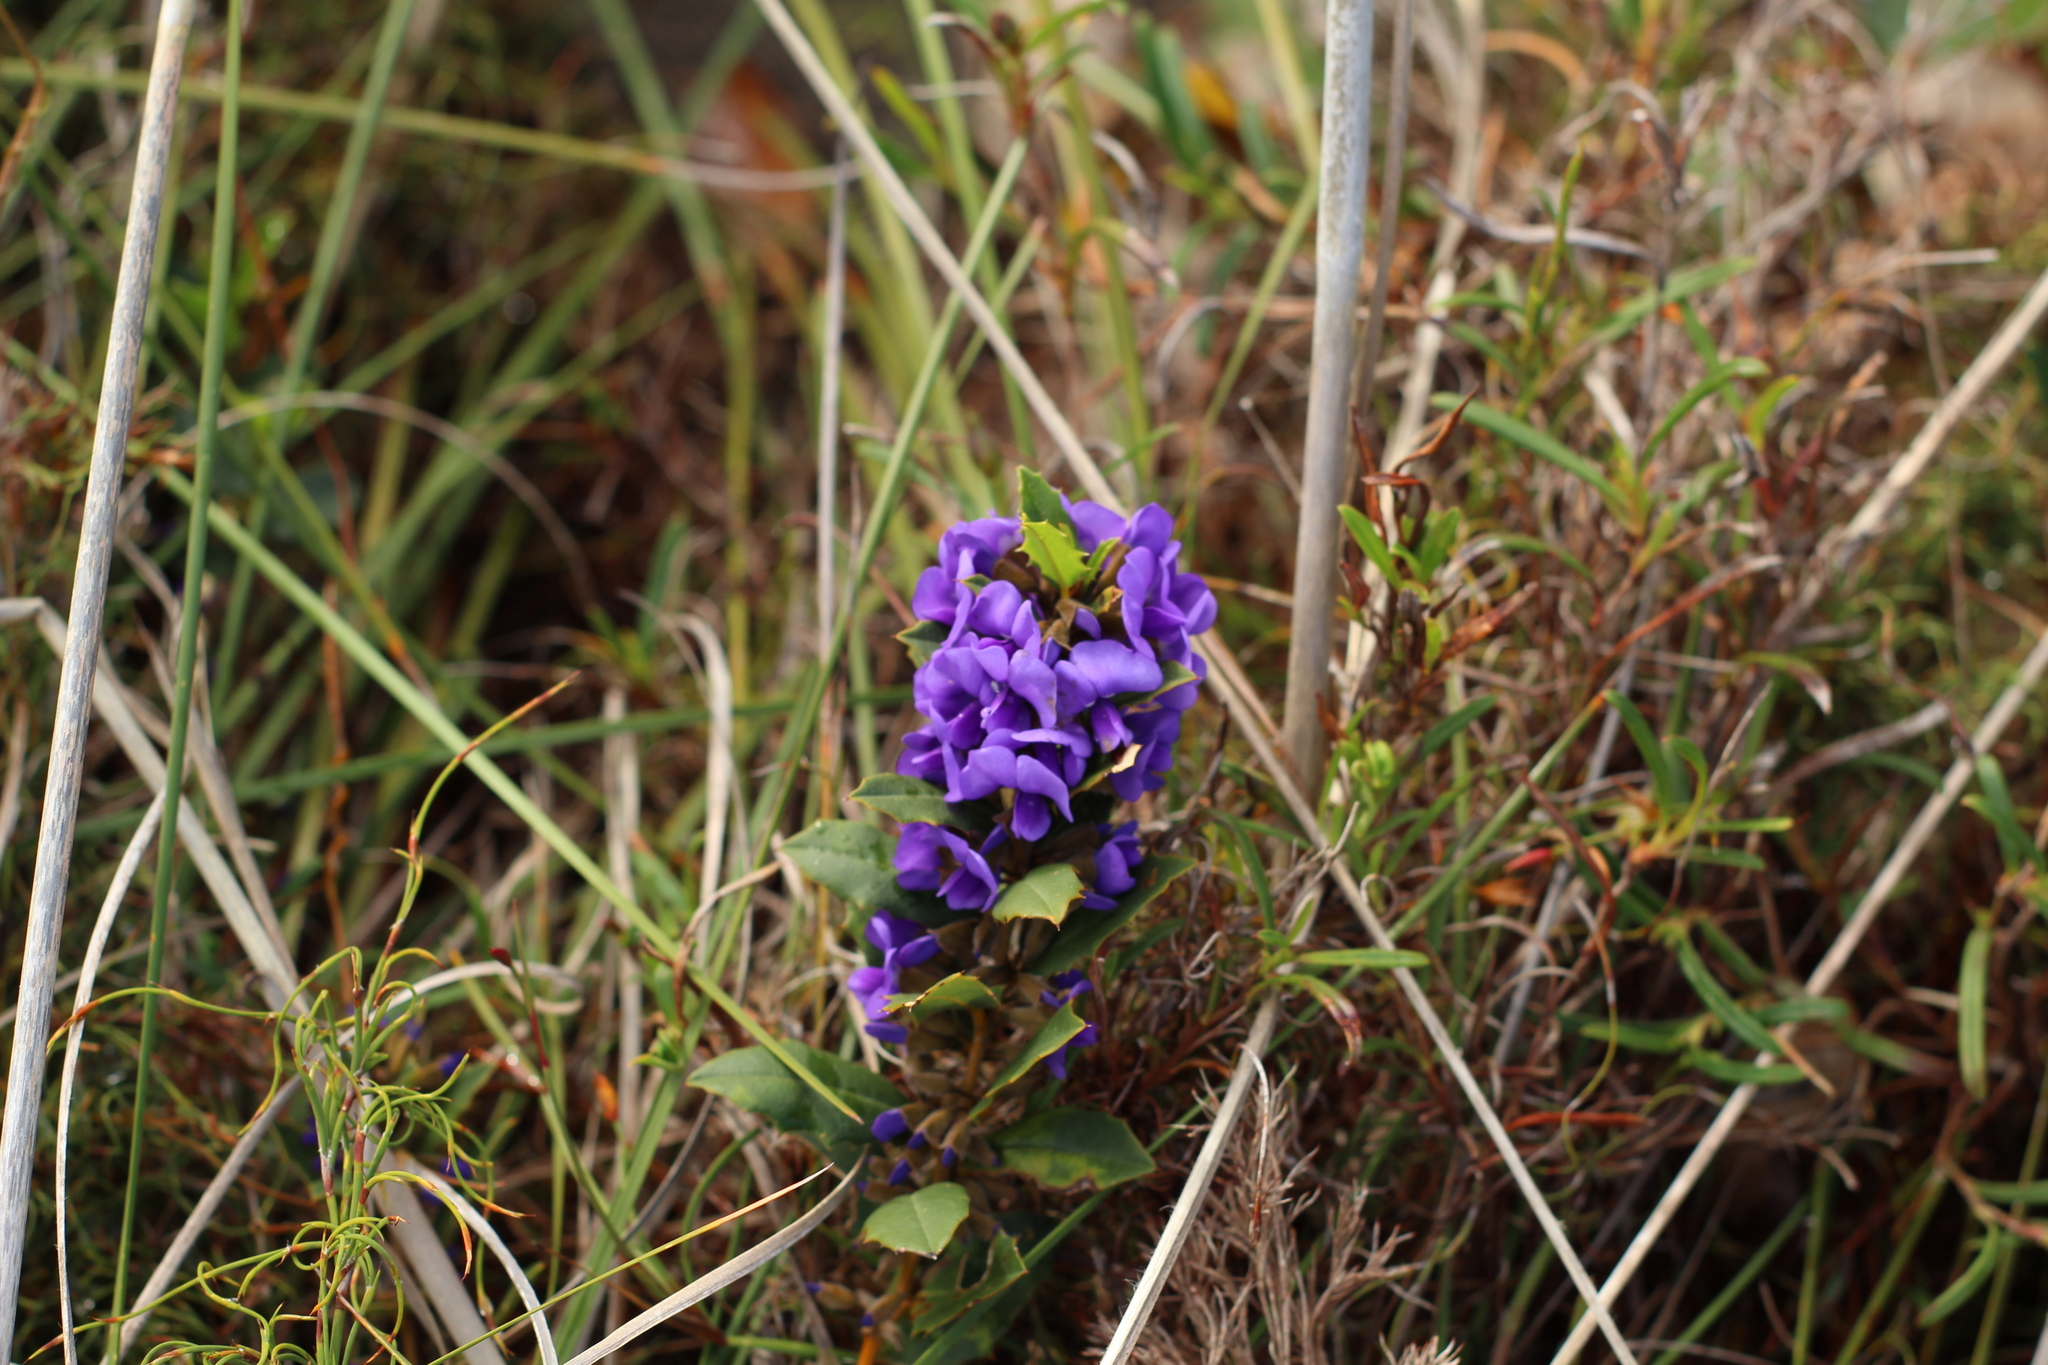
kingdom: Plantae
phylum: Tracheophyta
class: Magnoliopsida
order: Fabales
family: Fabaceae
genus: Hovea
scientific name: Hovea chorizemifolia
